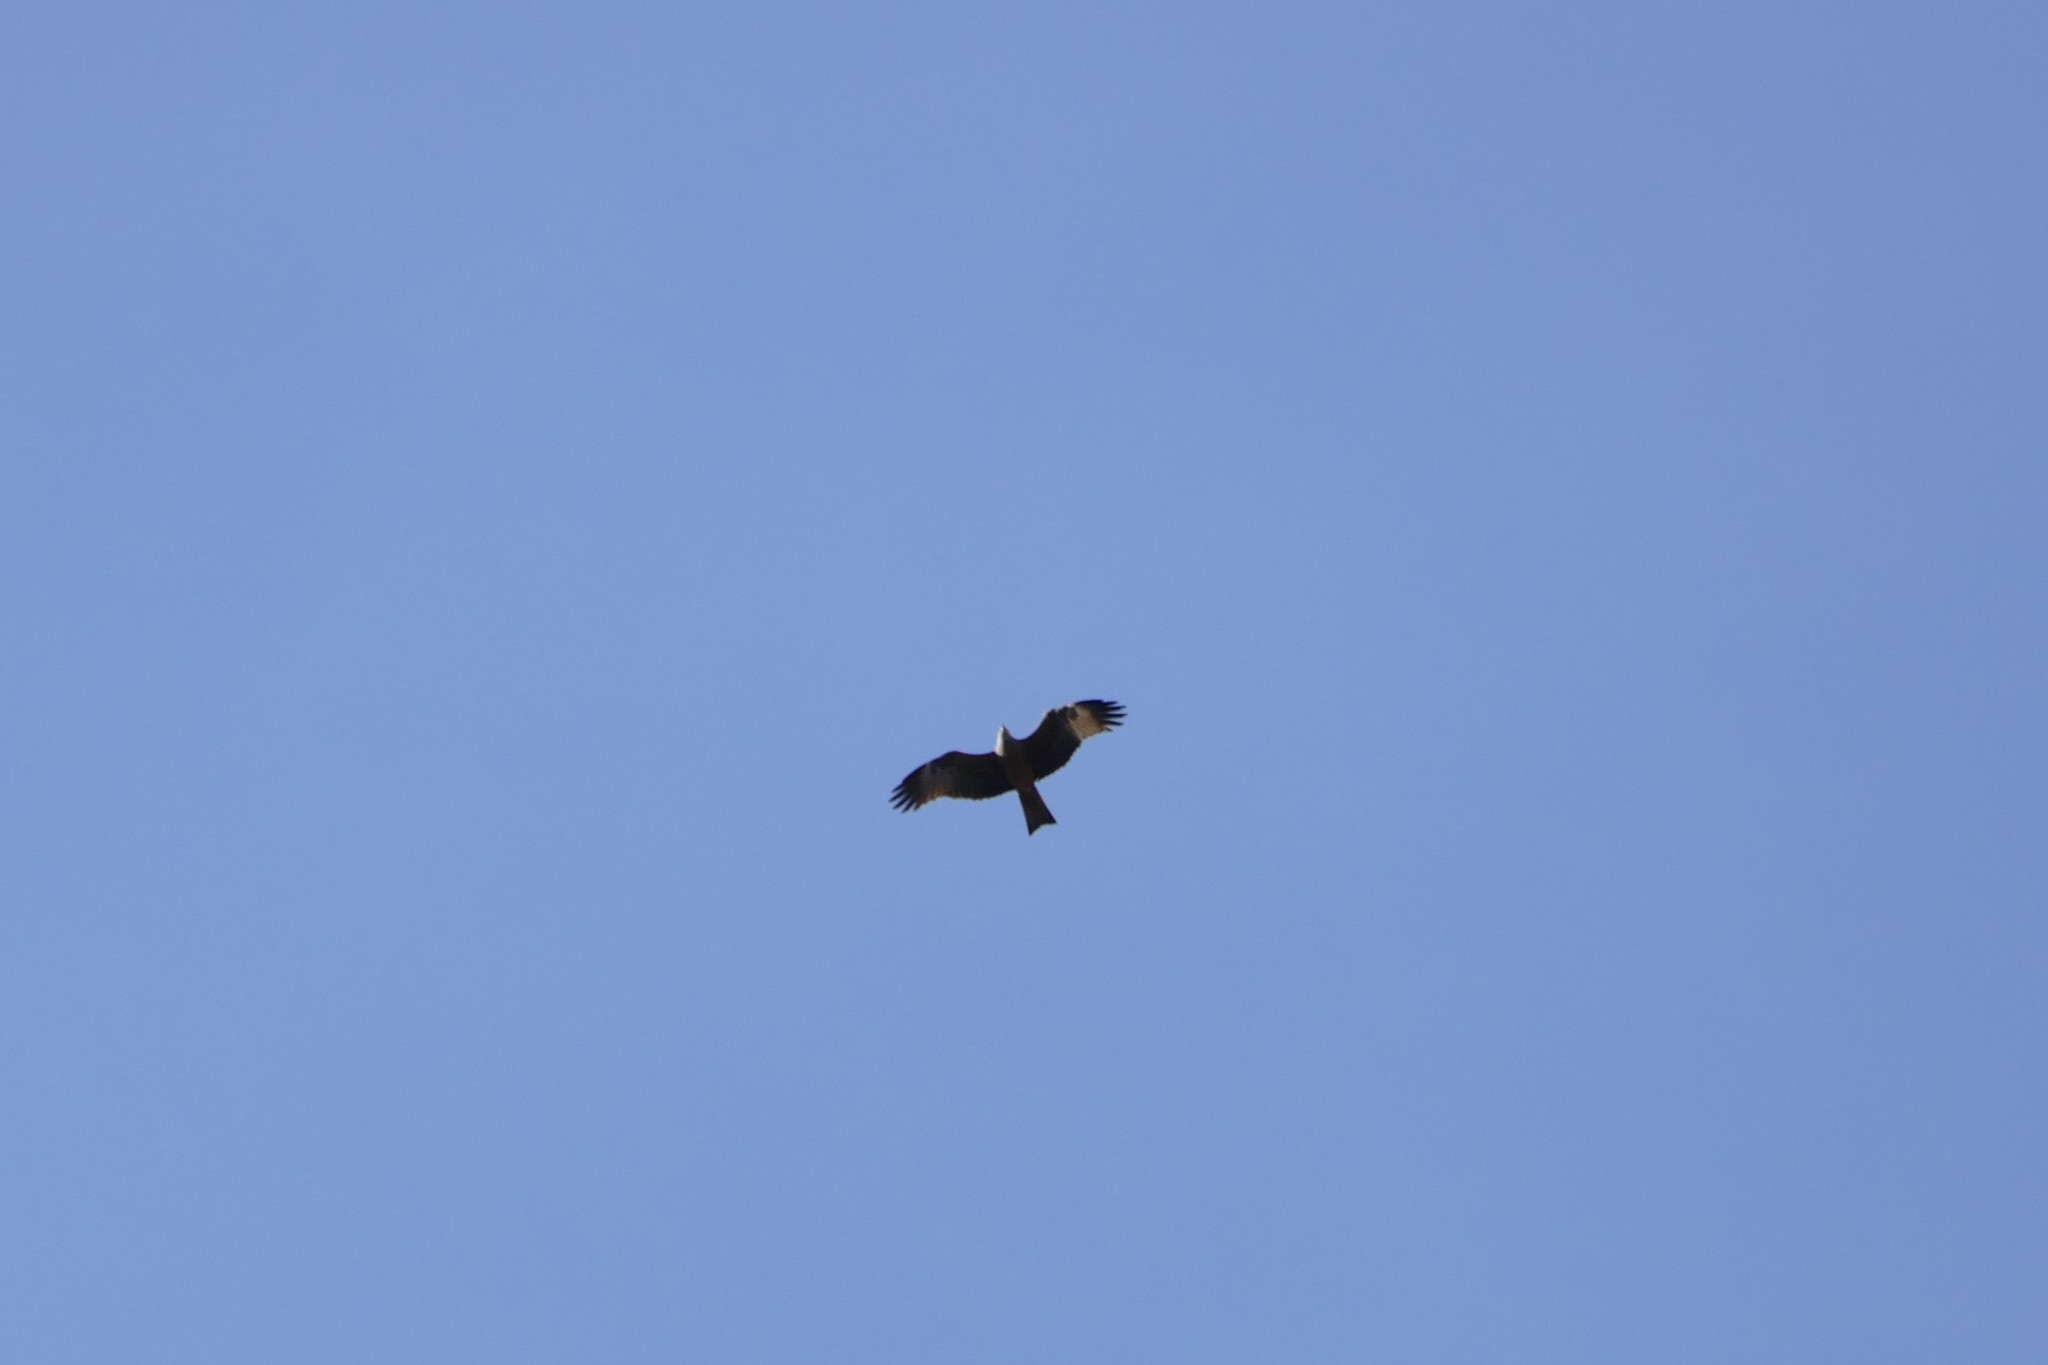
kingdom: Animalia
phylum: Chordata
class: Aves
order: Accipitriformes
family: Accipitridae
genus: Milvus
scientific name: Milvus milvus
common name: Red kite
